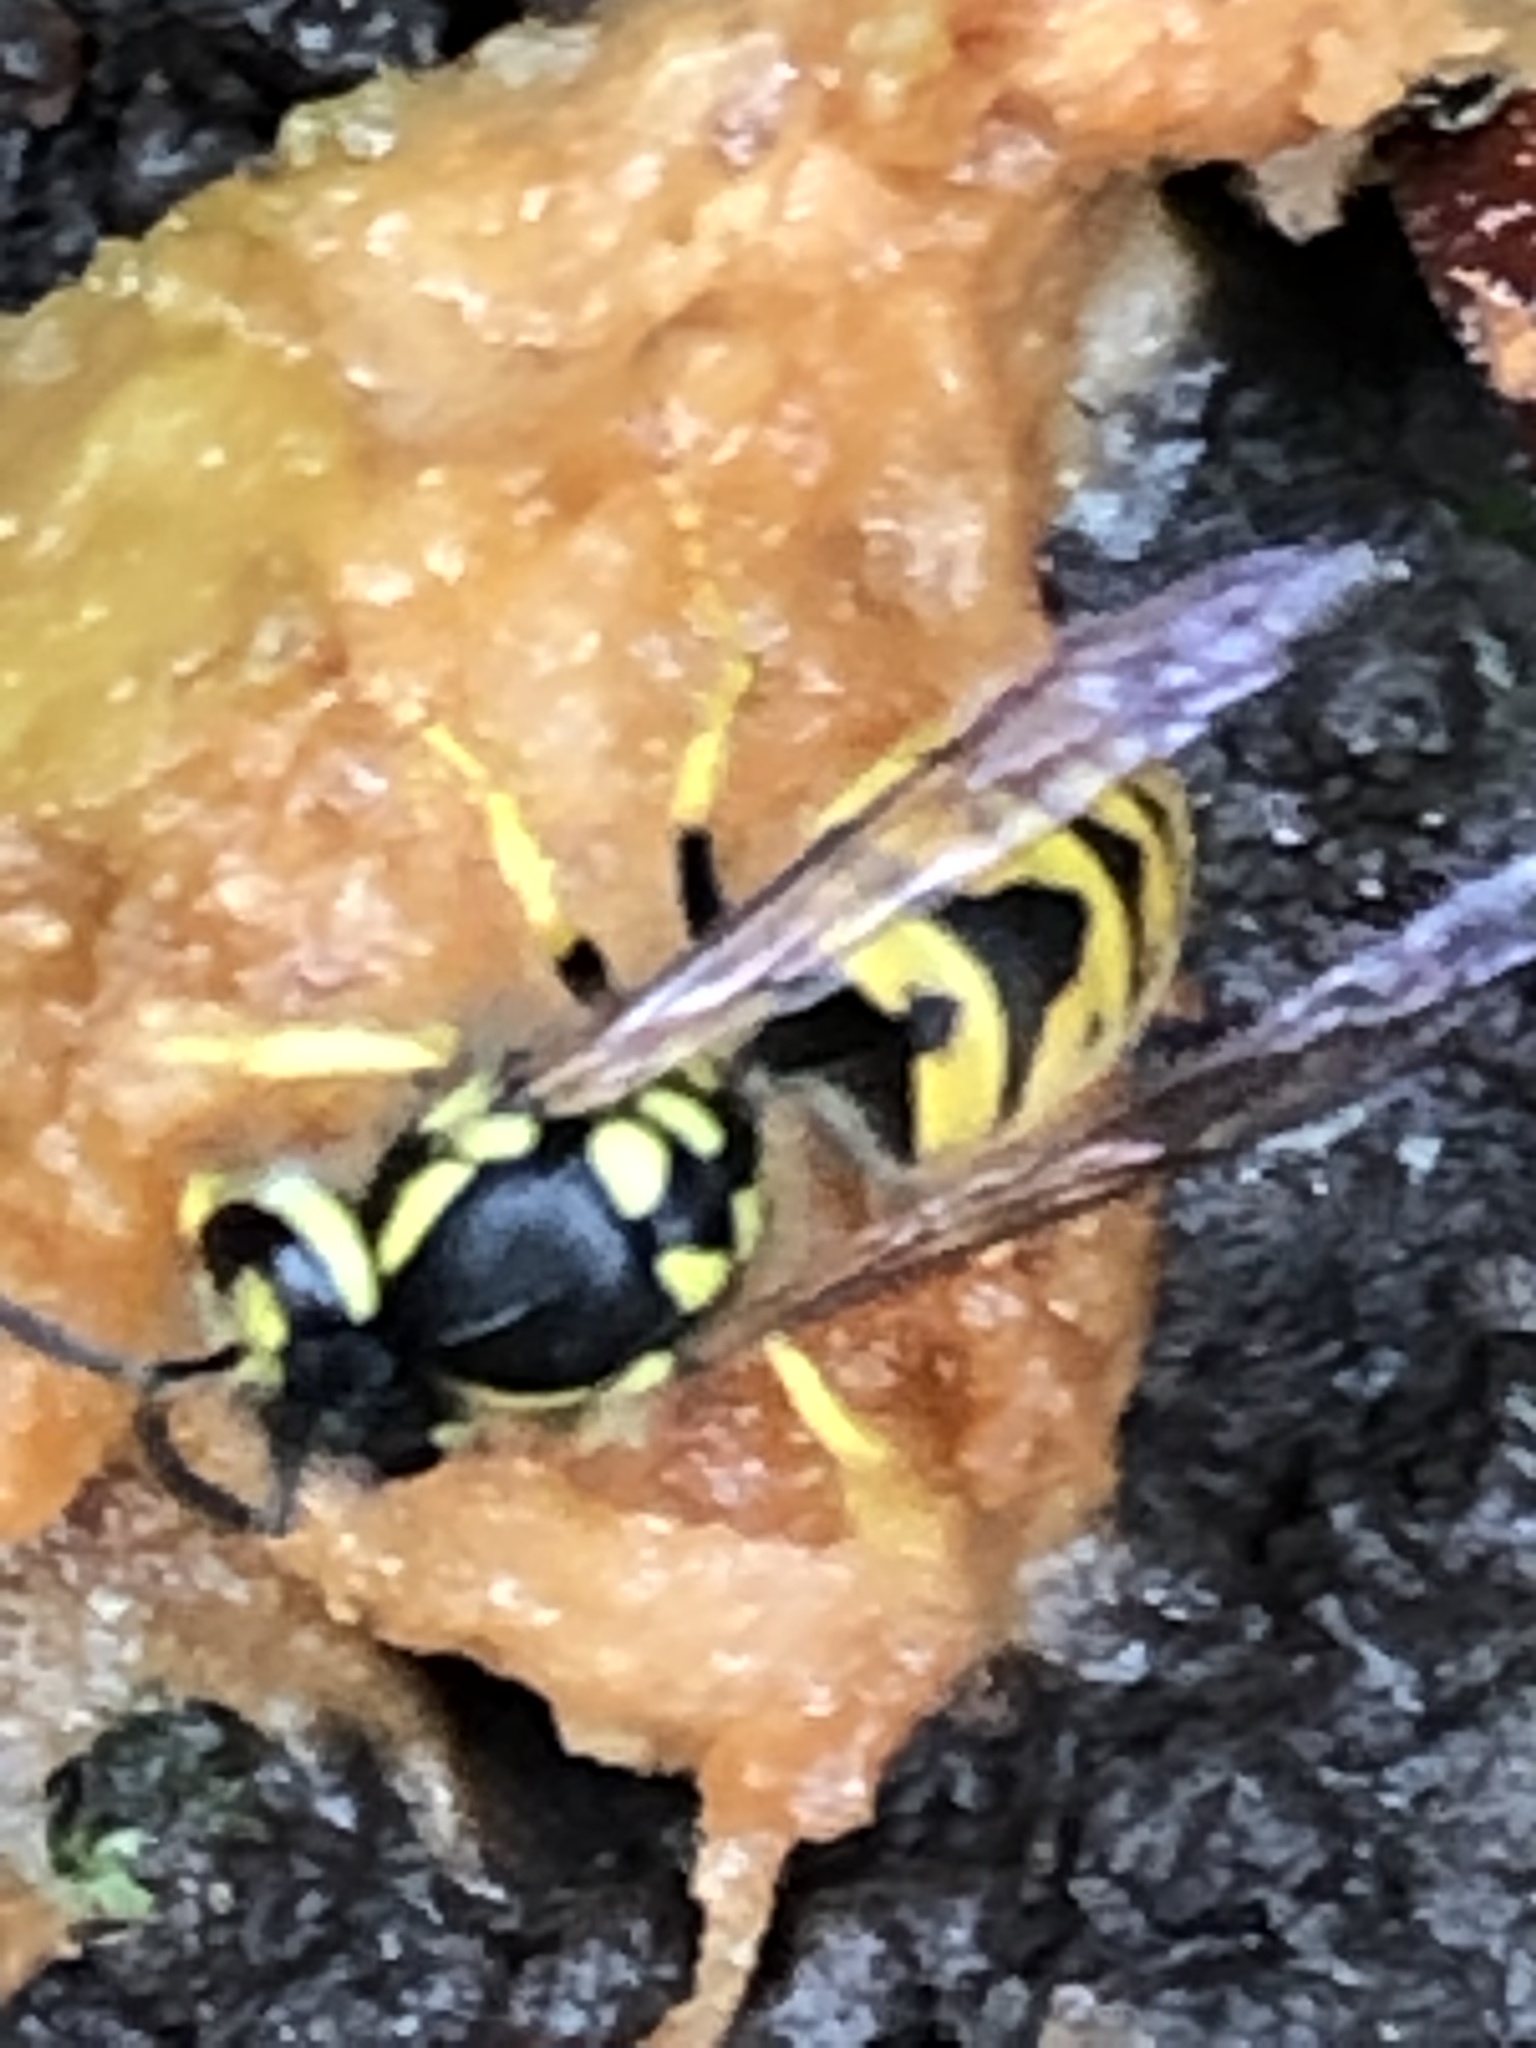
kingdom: Animalia
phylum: Arthropoda
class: Insecta
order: Hymenoptera
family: Vespidae
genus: Vespula
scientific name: Vespula germanica
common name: German wasp
